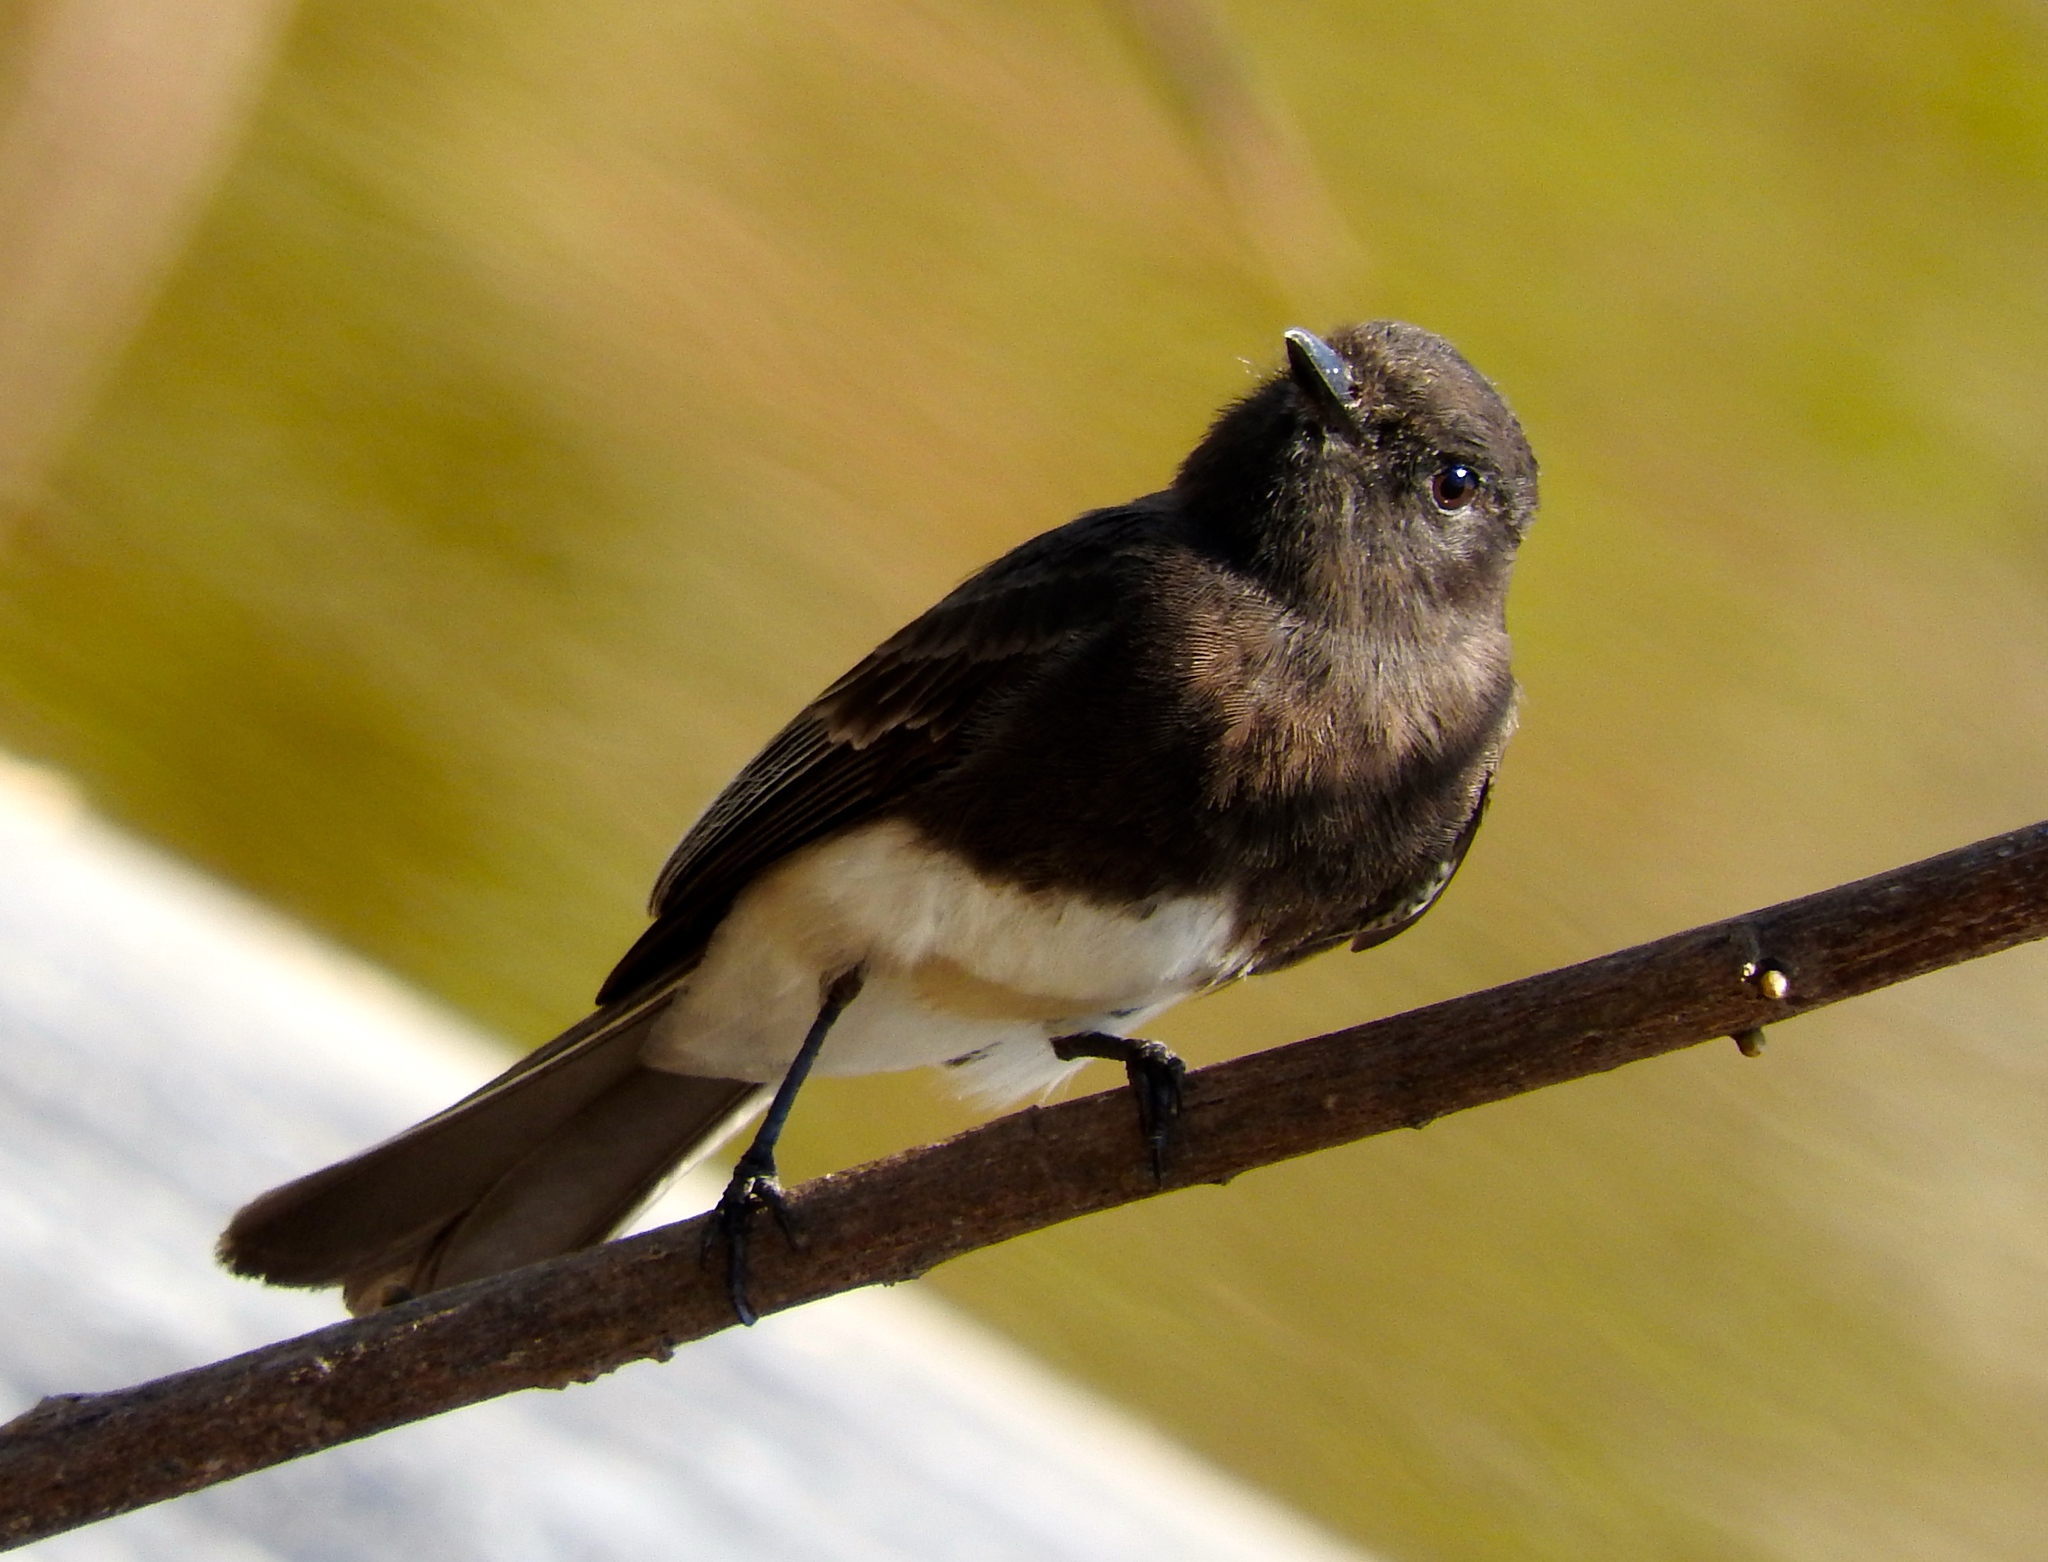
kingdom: Animalia
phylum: Chordata
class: Aves
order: Passeriformes
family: Tyrannidae
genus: Sayornis
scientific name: Sayornis nigricans
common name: Black phoebe
